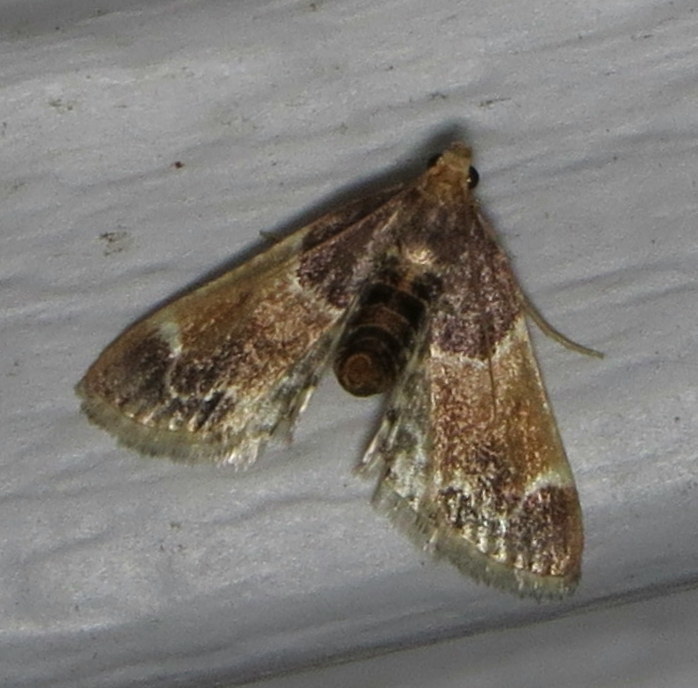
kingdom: Animalia
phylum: Arthropoda
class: Insecta
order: Lepidoptera
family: Pyralidae
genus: Pyralis
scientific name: Pyralis farinalis
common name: Meal moth
